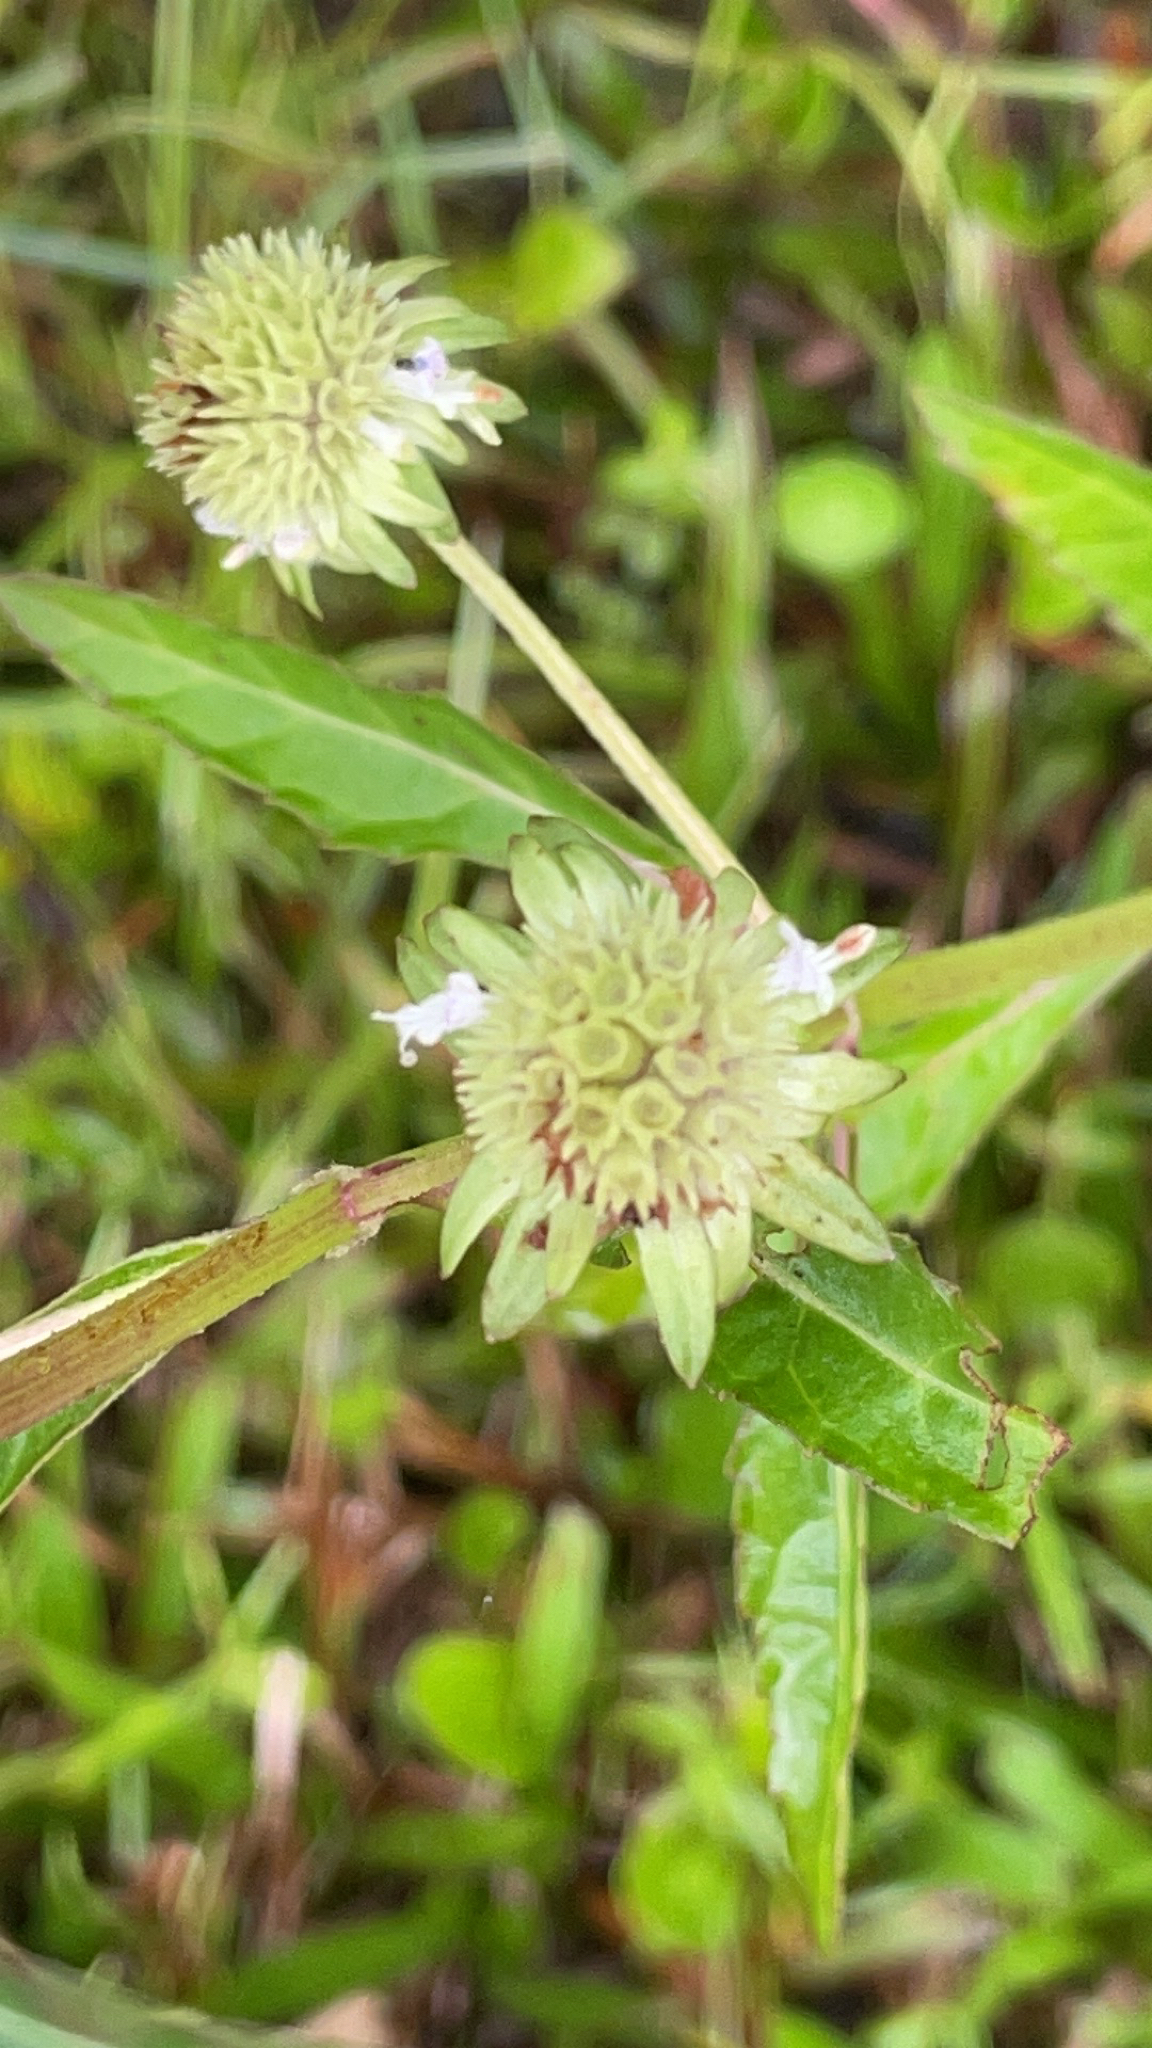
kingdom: Plantae
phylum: Tracheophyta
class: Magnoliopsida
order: Lamiales
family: Lamiaceae
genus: Hyptis
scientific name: Hyptis alata
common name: Cluster bush-mint
